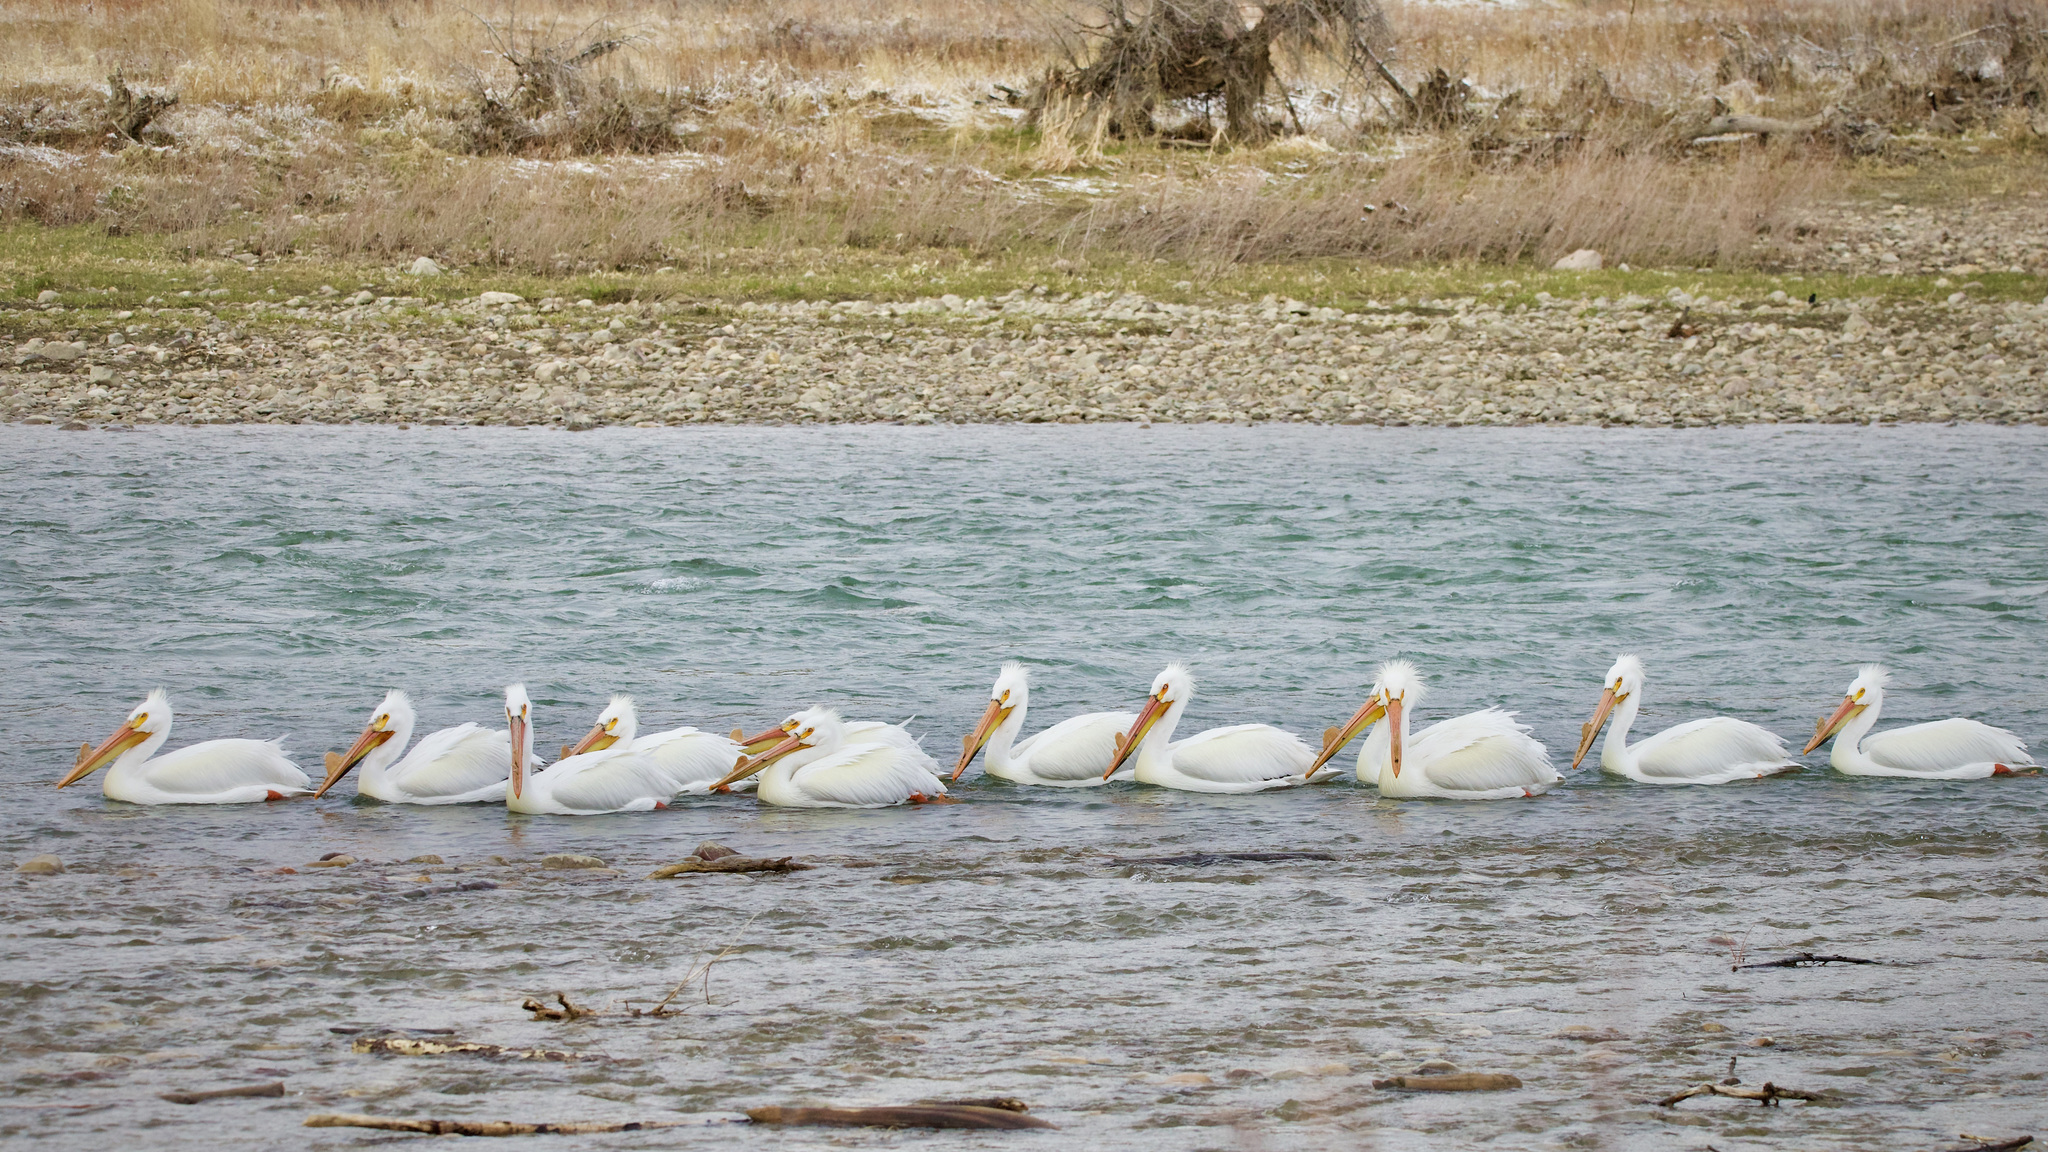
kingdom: Animalia
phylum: Chordata
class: Aves
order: Pelecaniformes
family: Pelecanidae
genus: Pelecanus
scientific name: Pelecanus erythrorhynchos
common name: American white pelican
